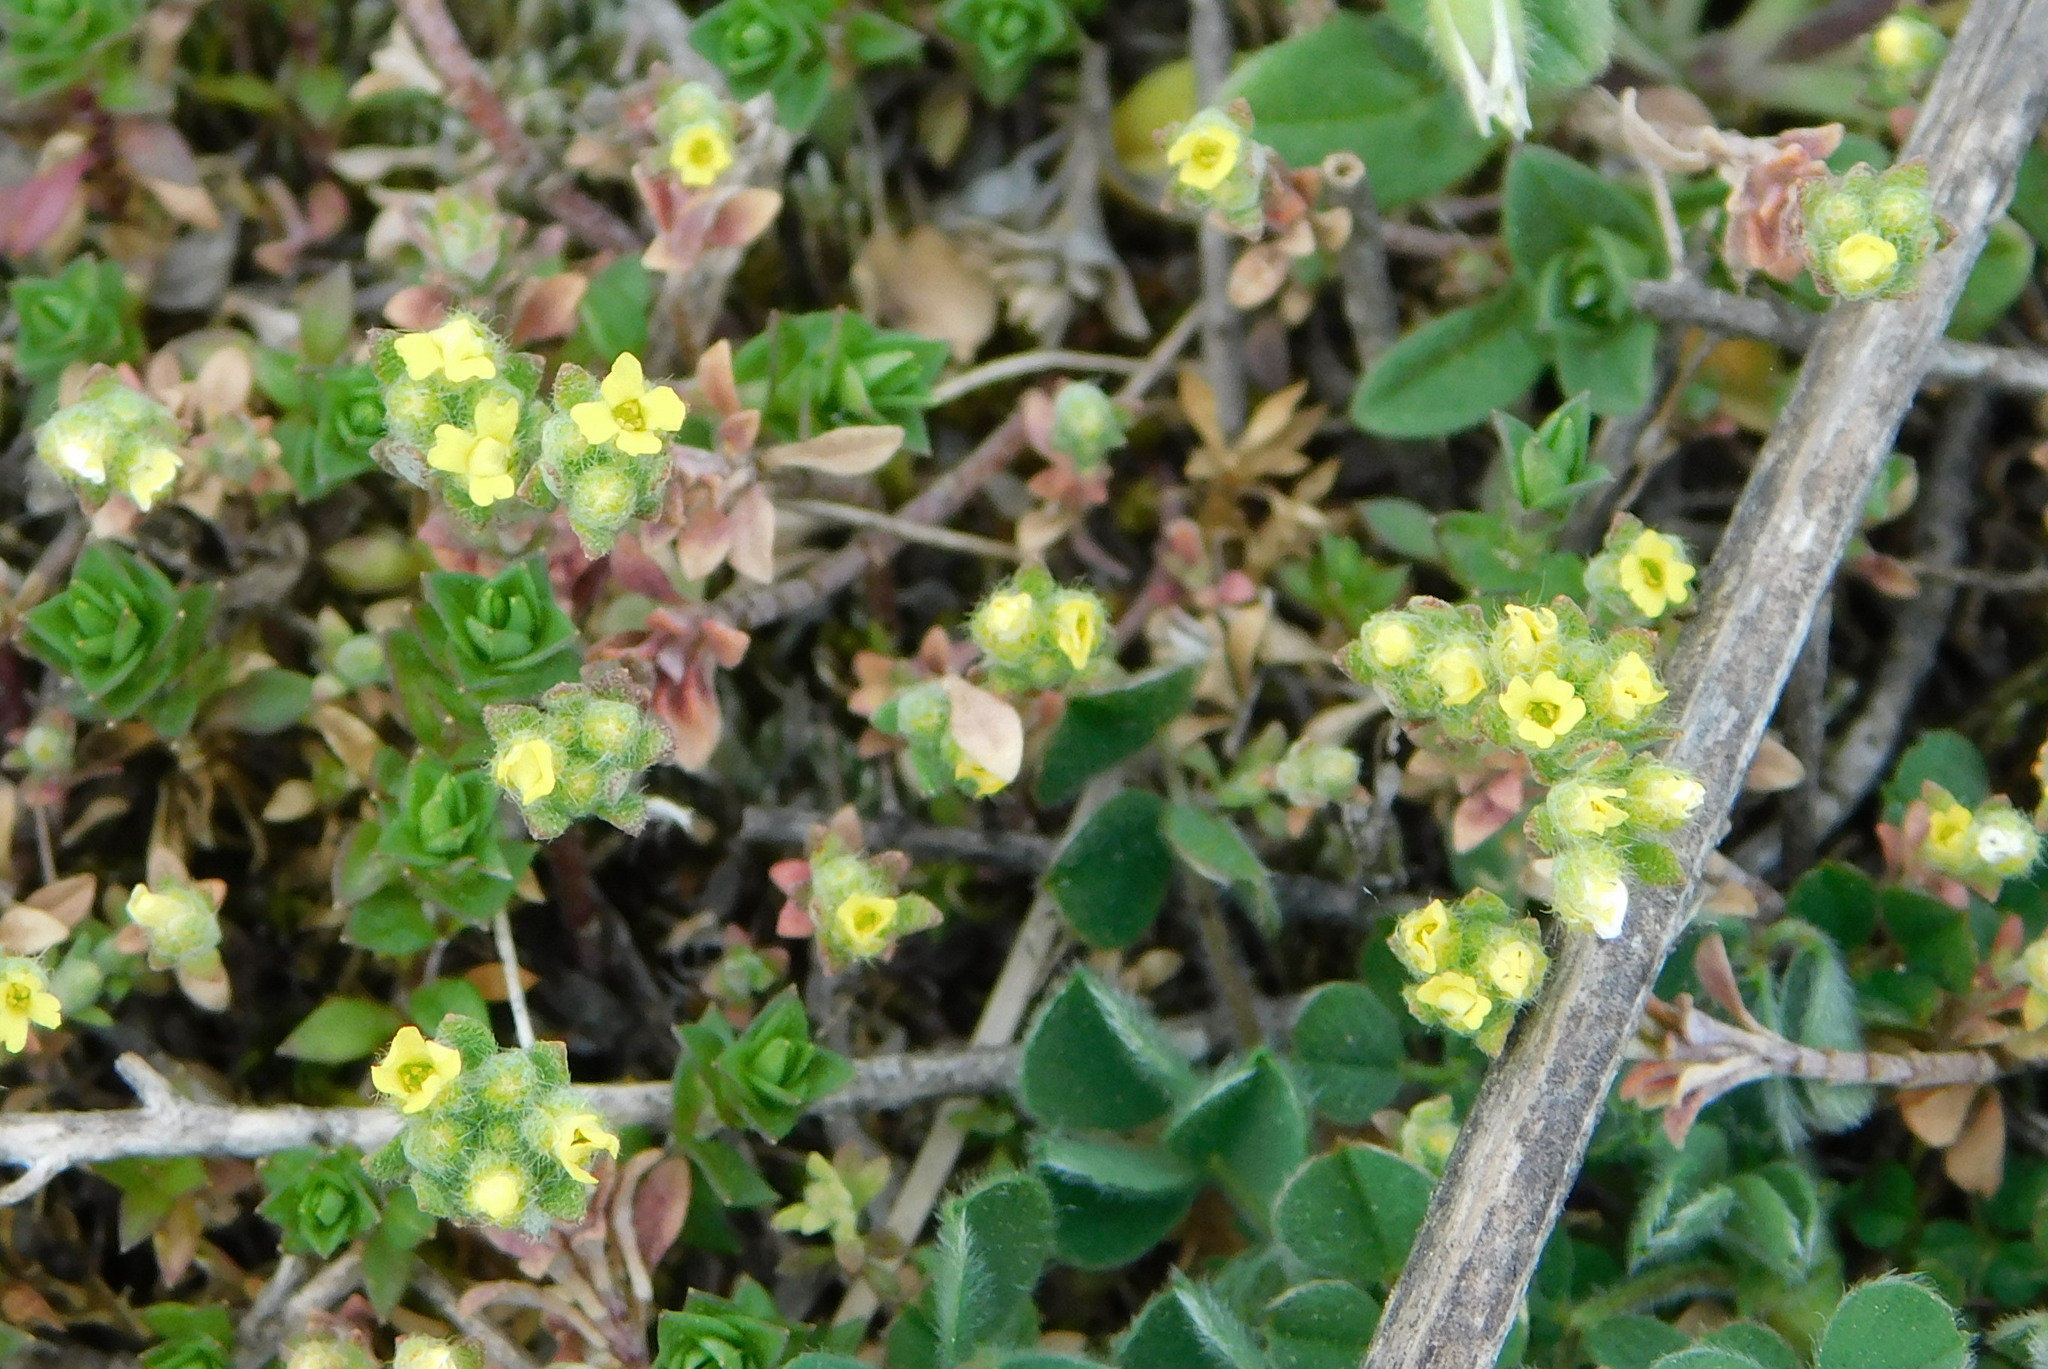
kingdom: Plantae
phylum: Tracheophyta
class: Magnoliopsida
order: Brassicales
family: Brassicaceae
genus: Alyssum
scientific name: Alyssum alyssoides
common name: Small alison
